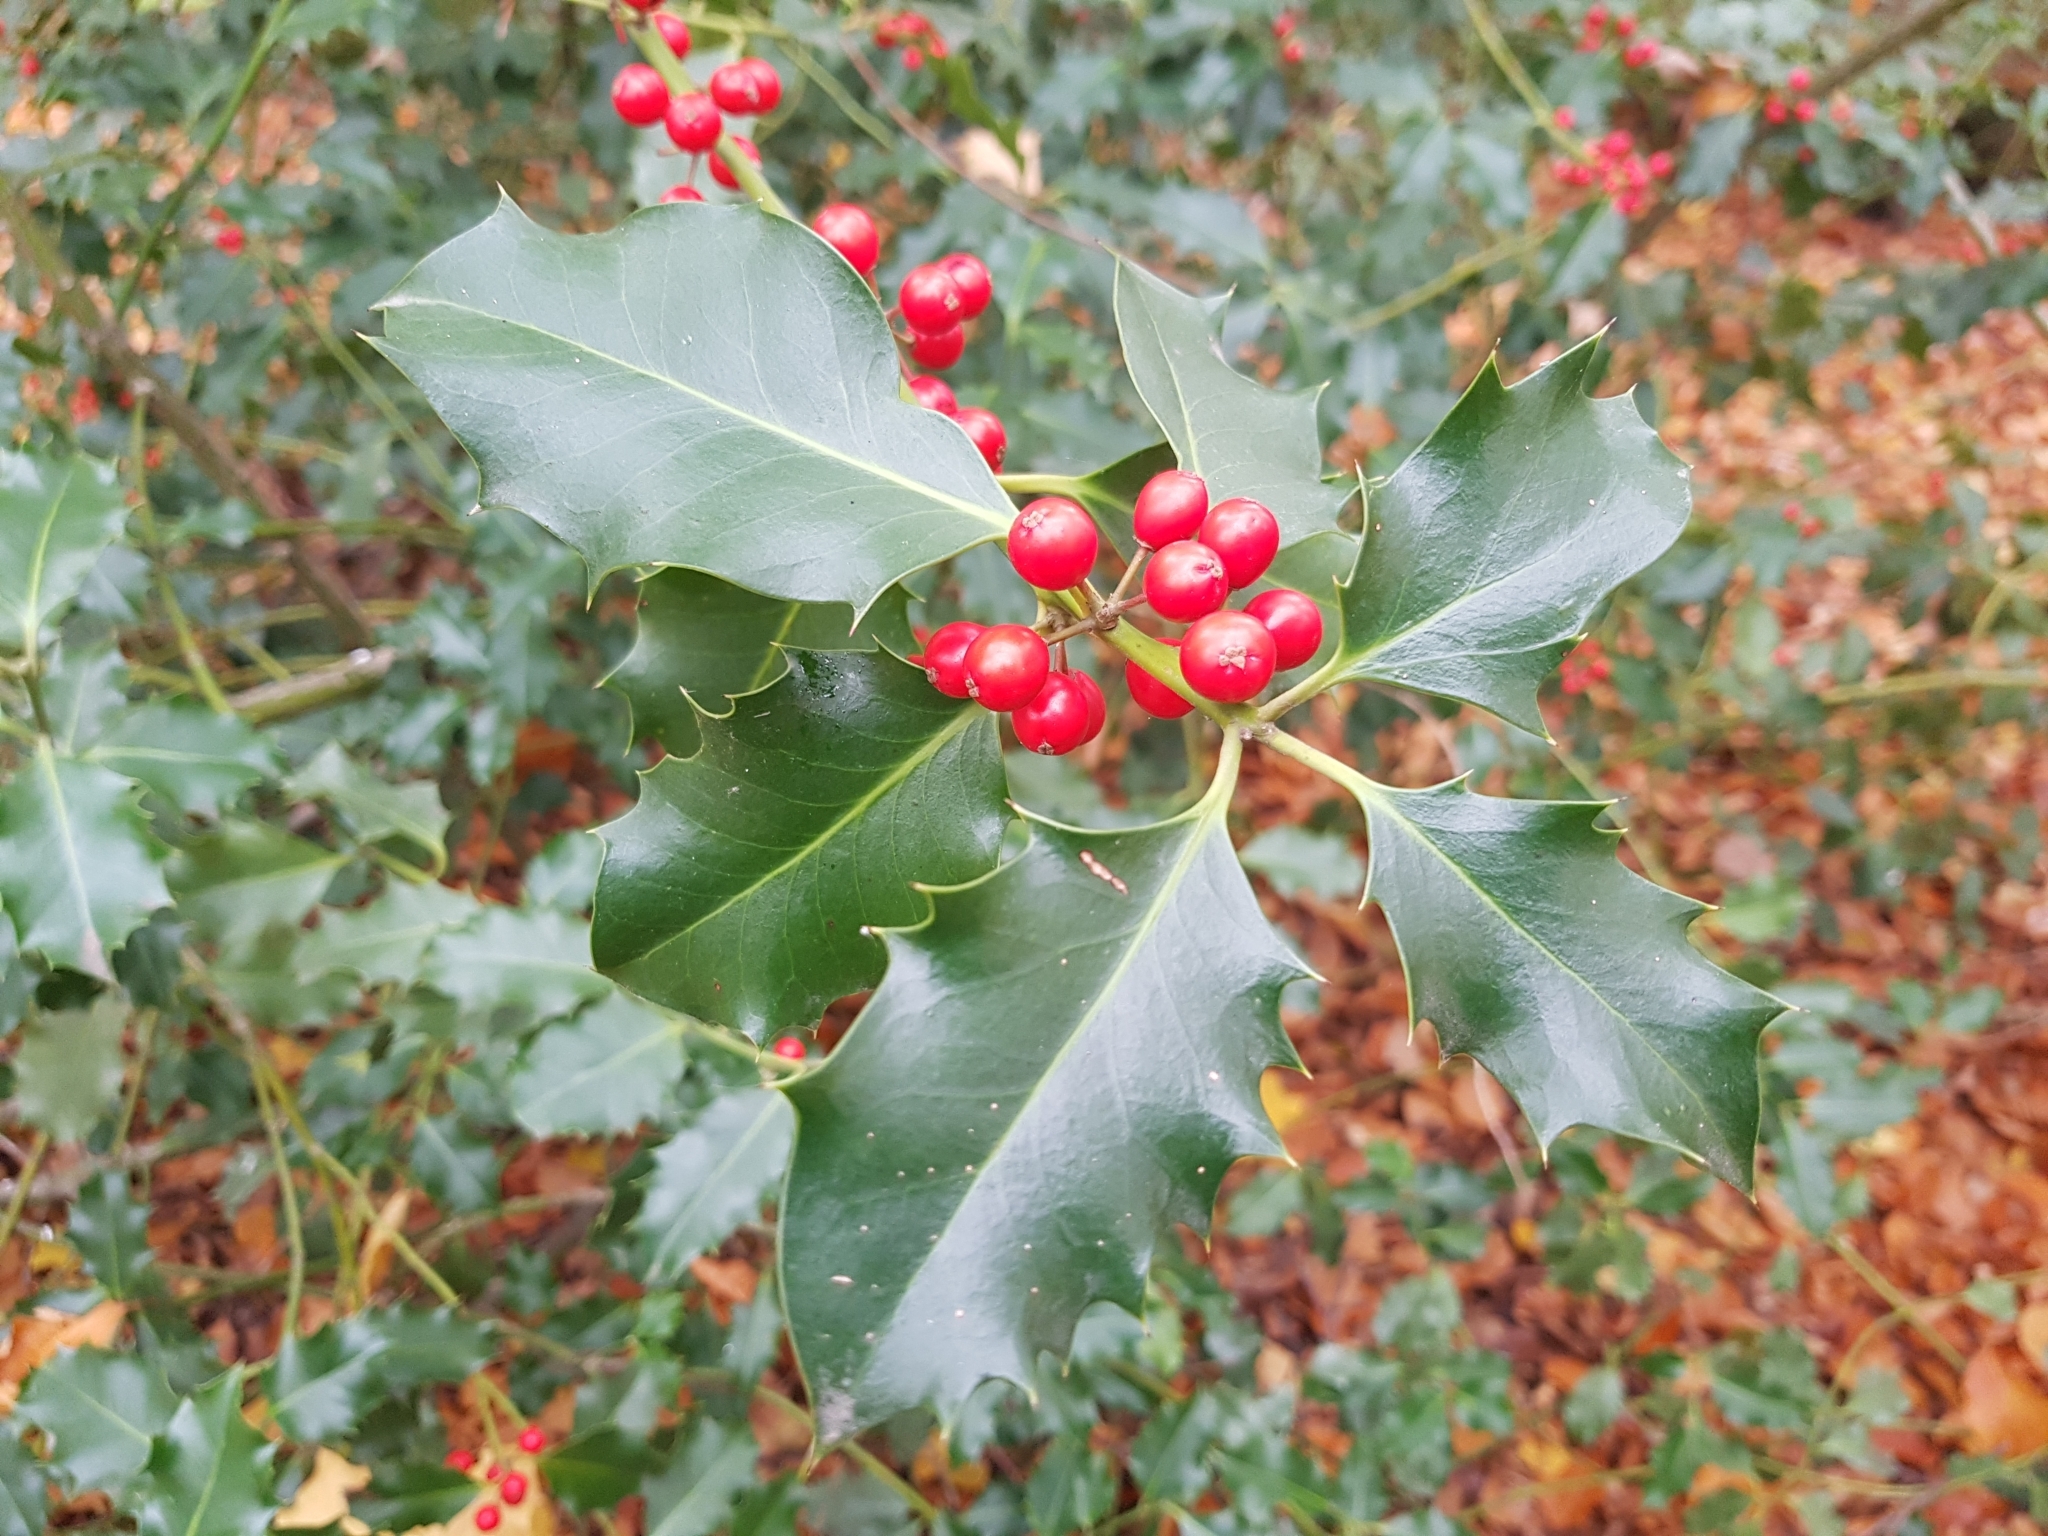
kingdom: Plantae
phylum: Tracheophyta
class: Magnoliopsida
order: Aquifoliales
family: Aquifoliaceae
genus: Ilex
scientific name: Ilex aquifolium
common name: English holly
